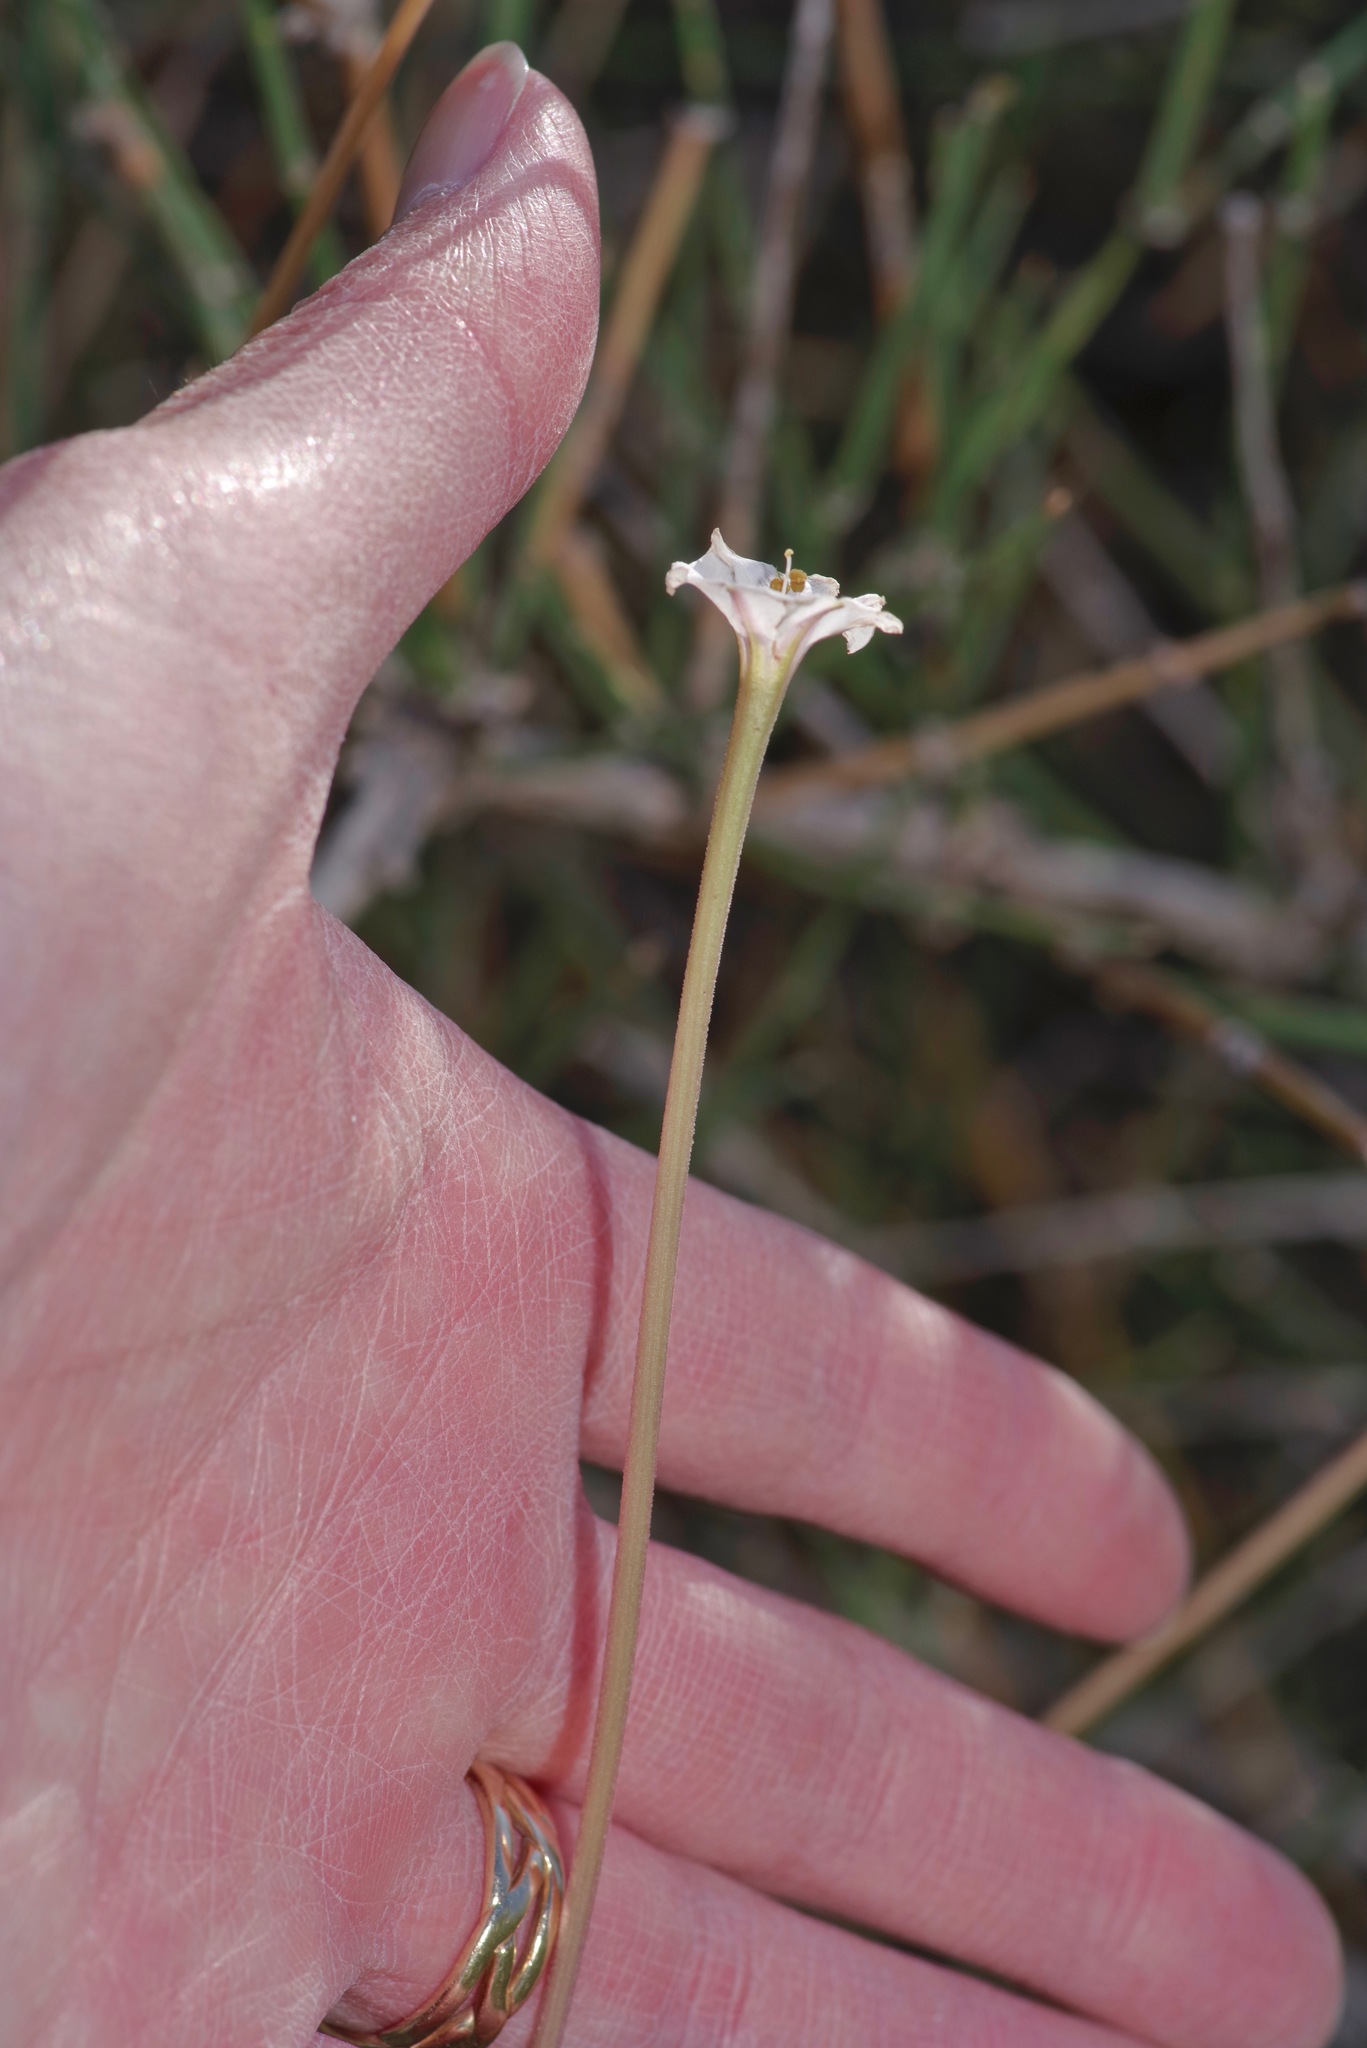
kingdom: Plantae
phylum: Tracheophyta
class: Magnoliopsida
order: Caryophyllales
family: Nyctaginaceae
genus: Acleisanthes
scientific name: Acleisanthes longiflora
